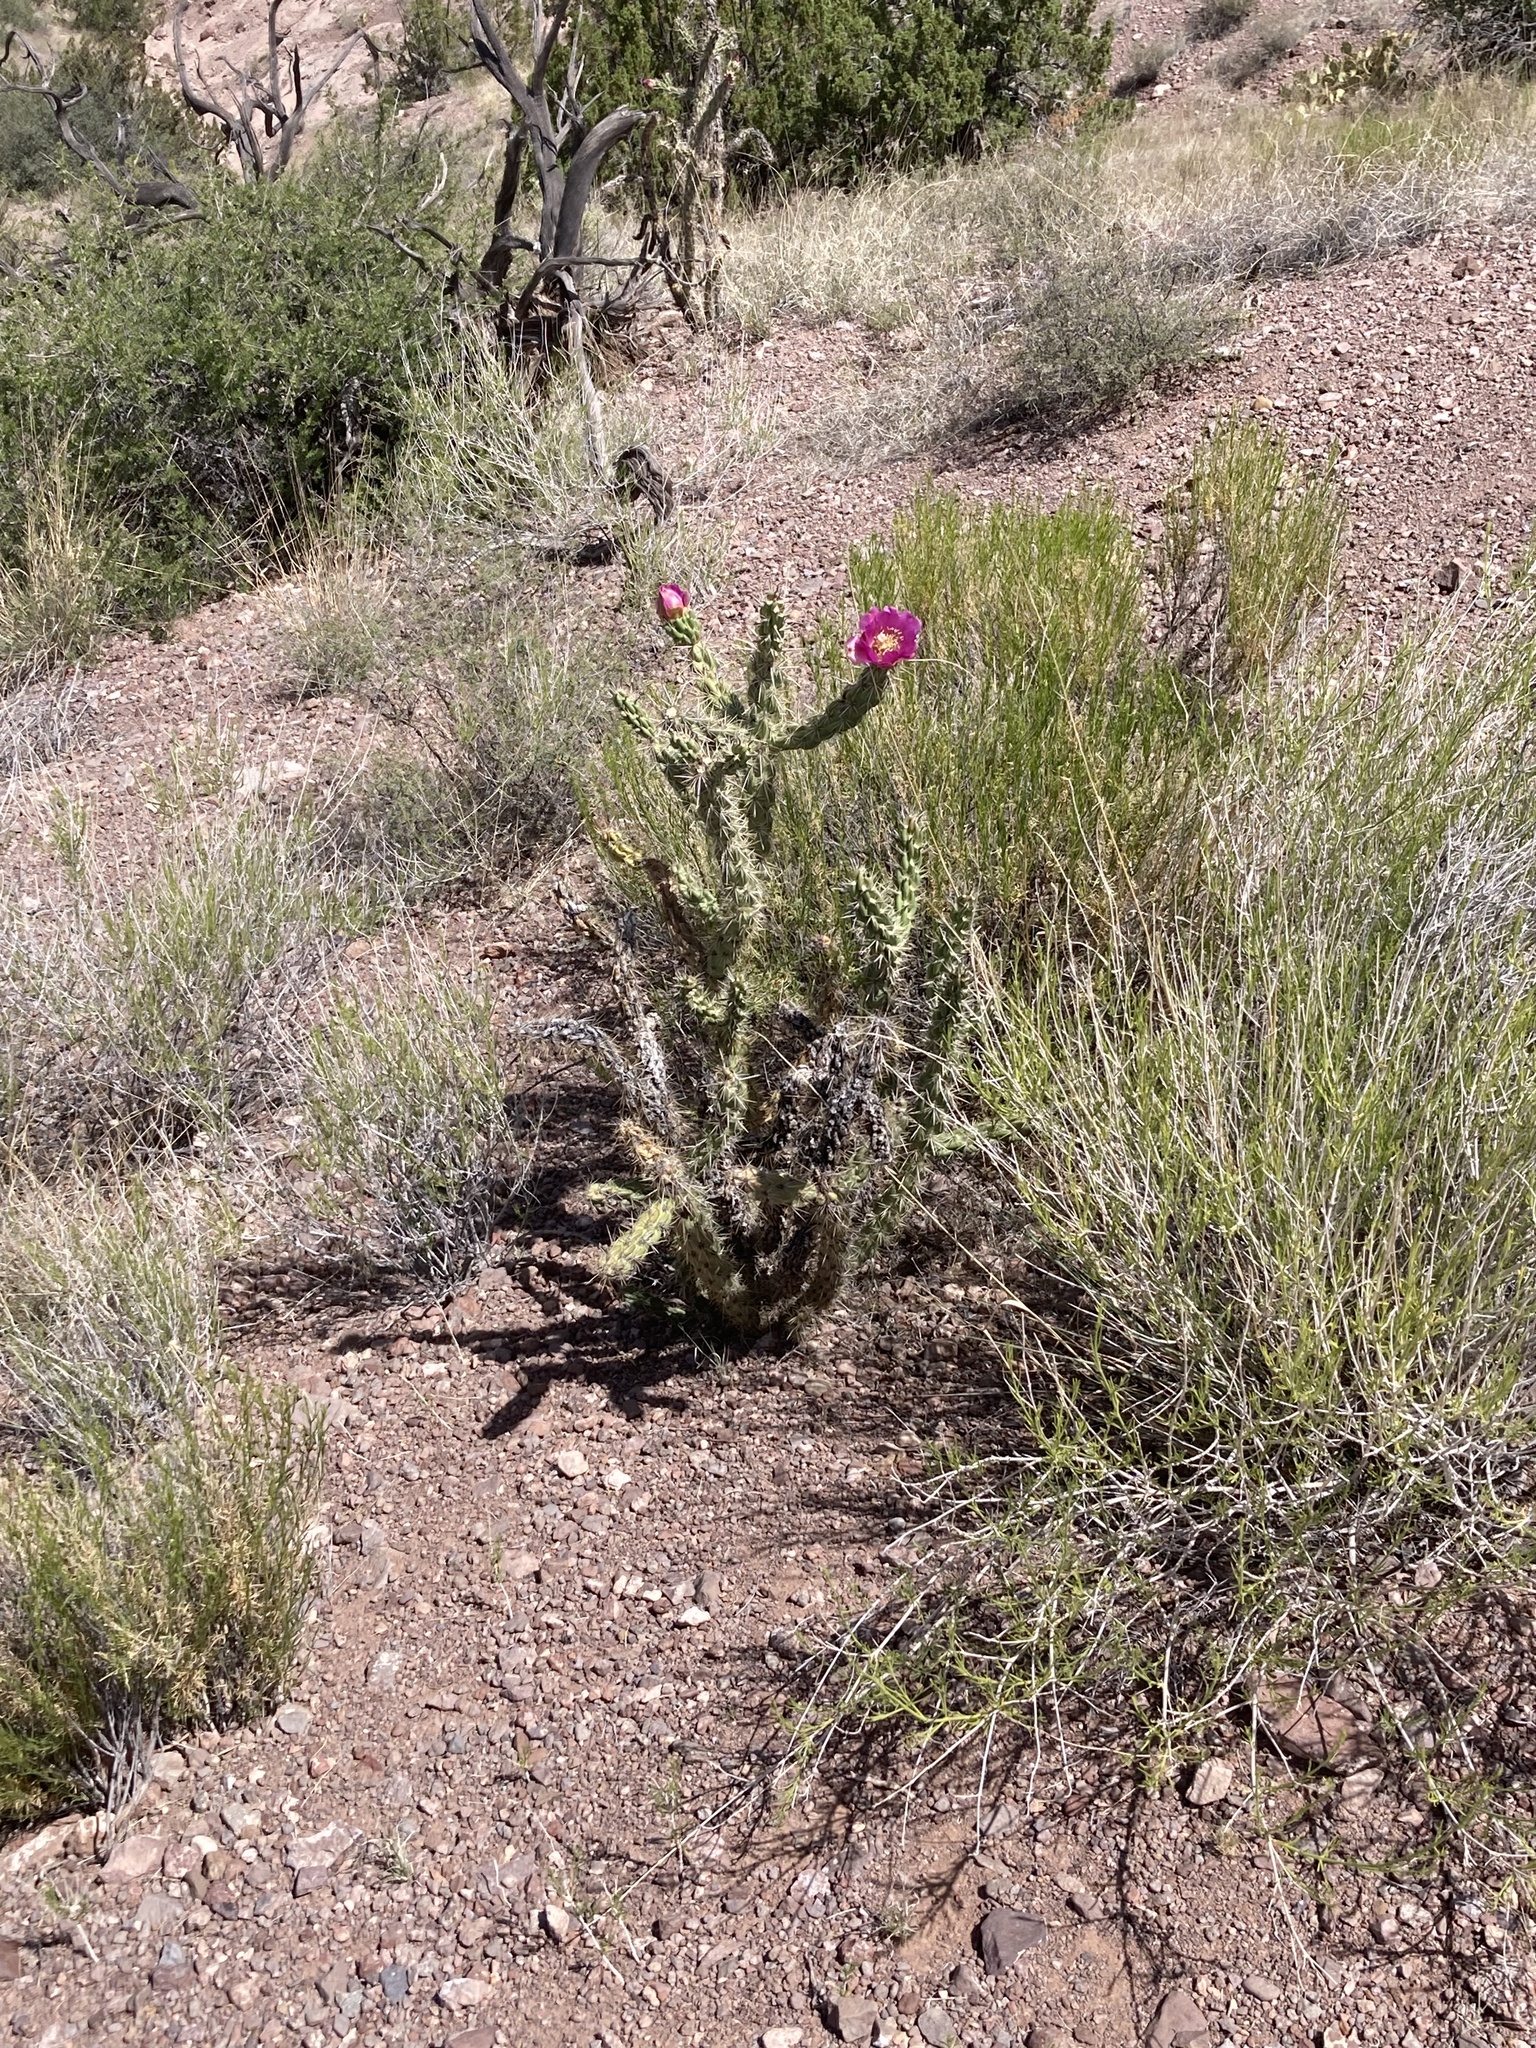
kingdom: Plantae
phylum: Tracheophyta
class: Magnoliopsida
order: Caryophyllales
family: Cactaceae
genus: Cylindropuntia
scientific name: Cylindropuntia imbricata
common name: Candelabrum cactus
